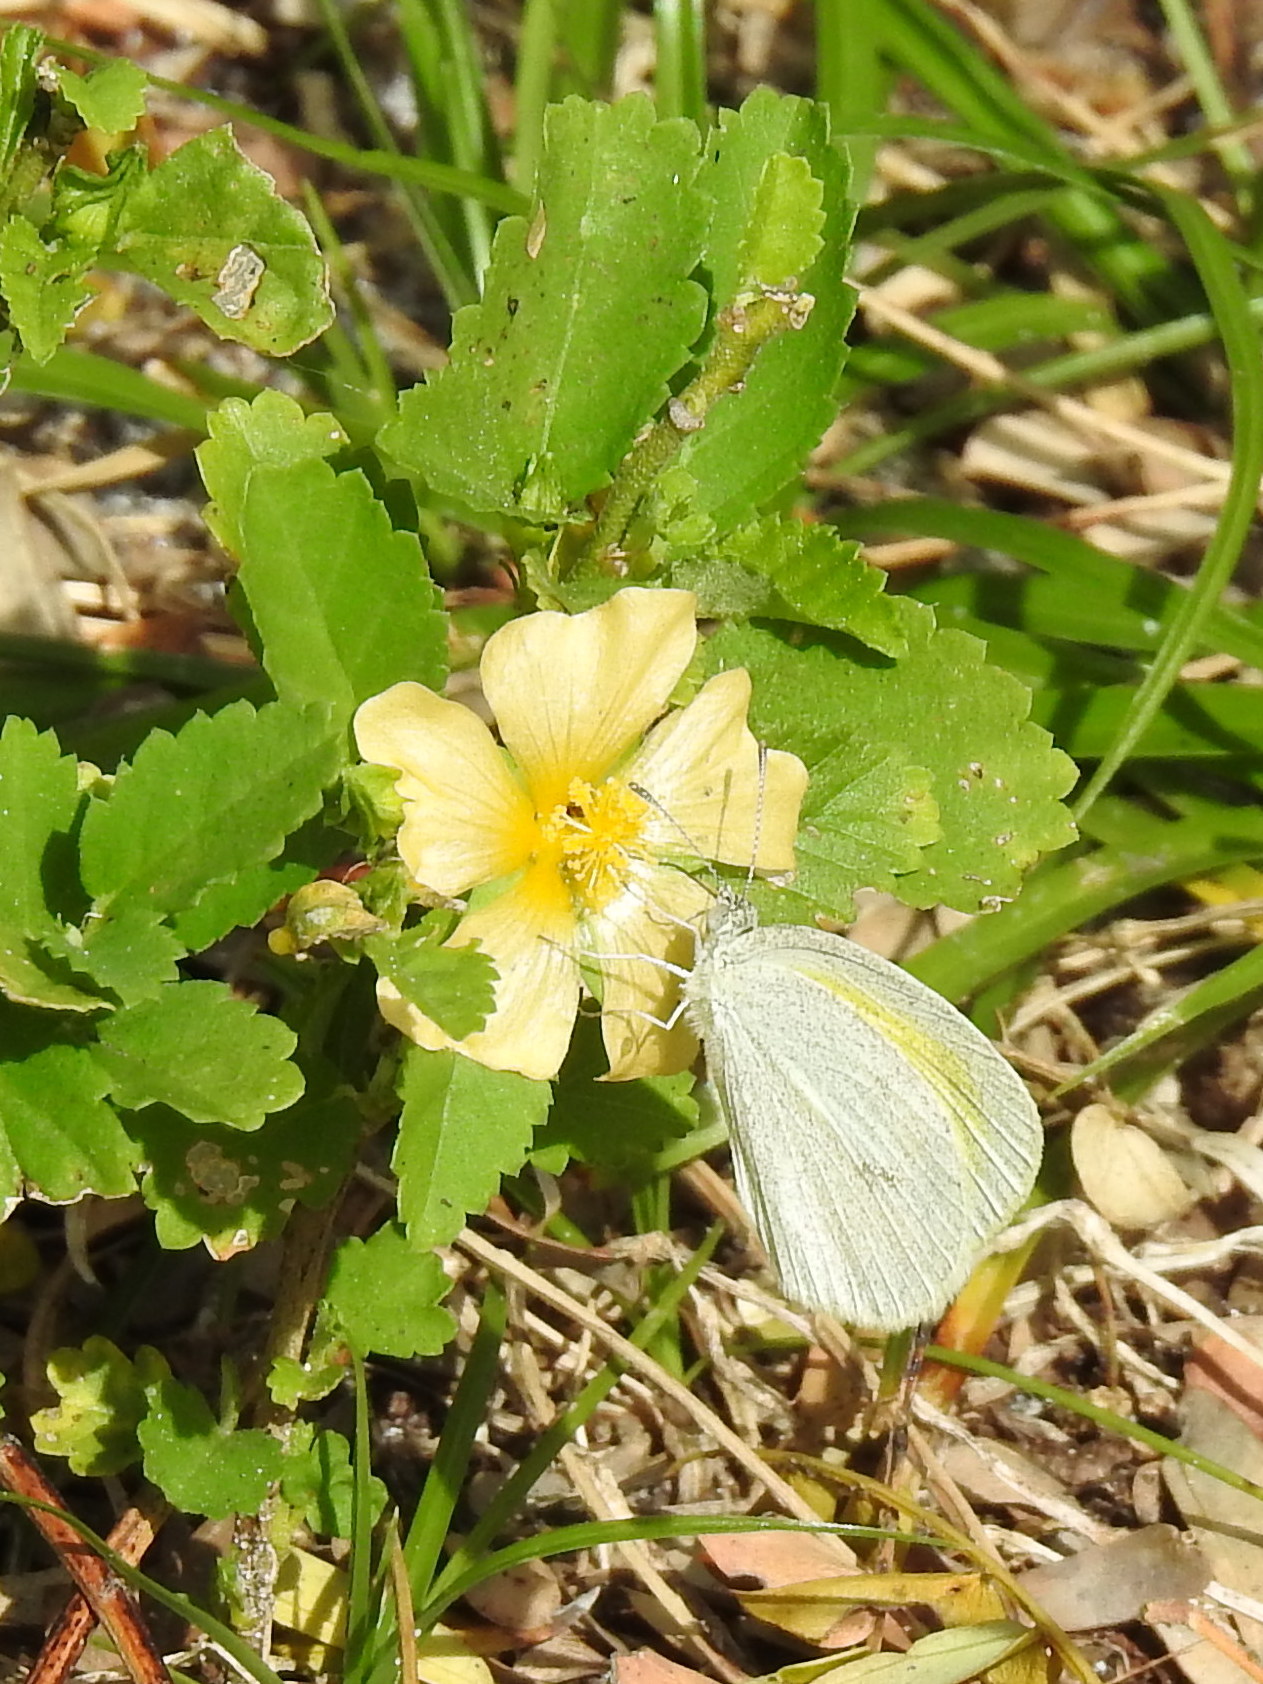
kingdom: Animalia
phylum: Arthropoda
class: Insecta
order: Lepidoptera
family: Pieridae
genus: Eurema
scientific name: Eurema daira
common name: Barred sulphur
